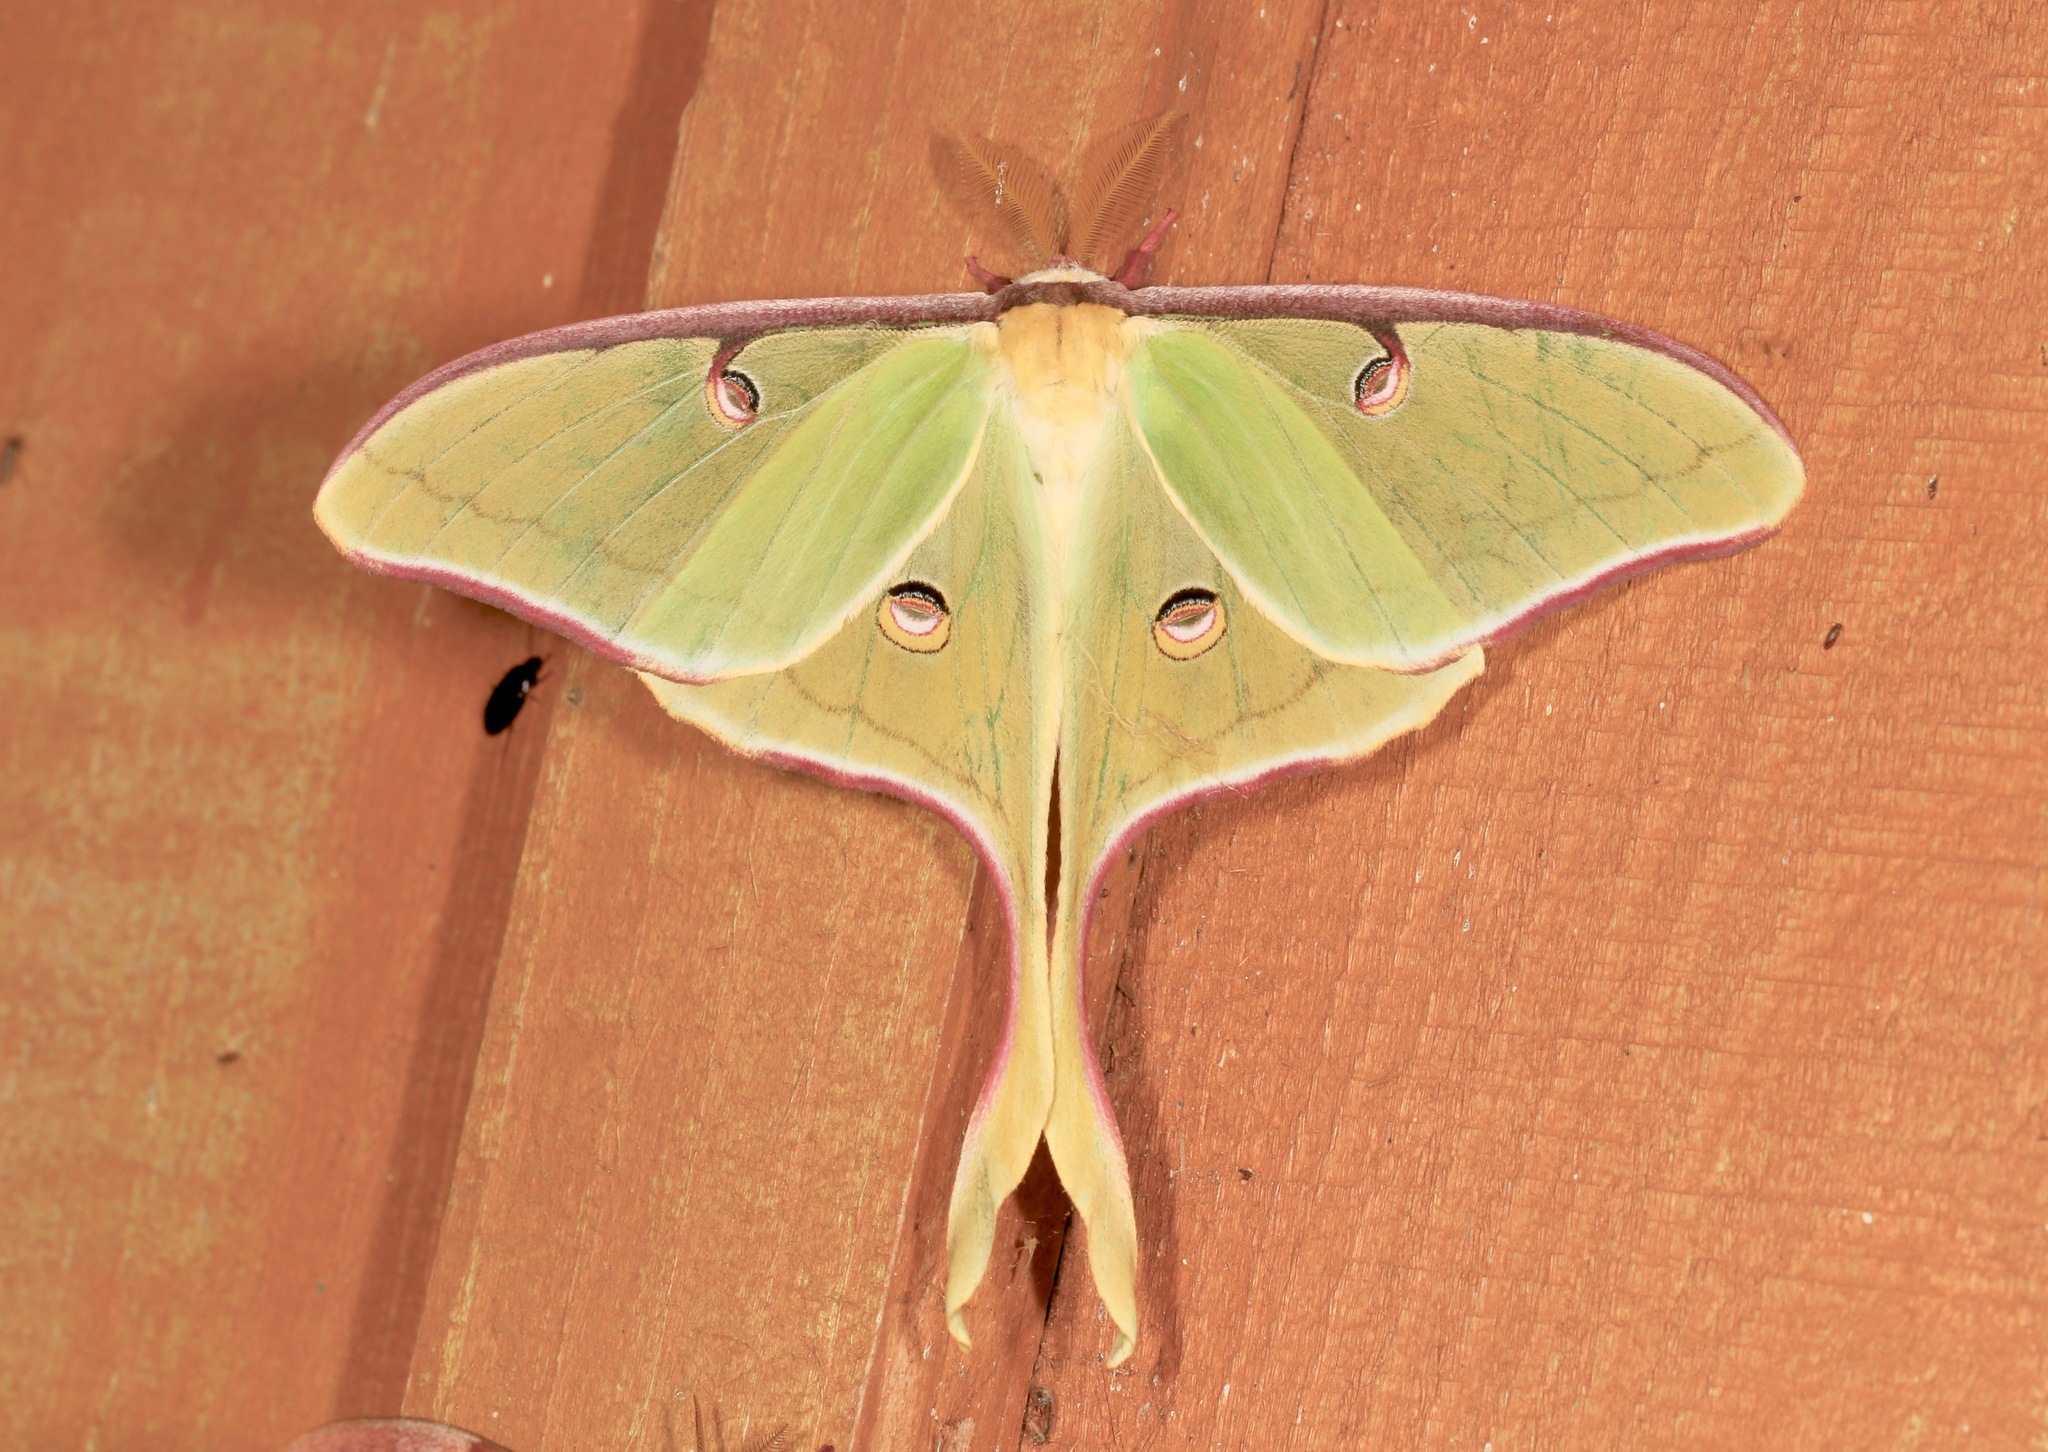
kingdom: Animalia
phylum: Arthropoda
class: Insecta
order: Lepidoptera
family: Saturniidae
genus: Actias
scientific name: Actias luna
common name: Luna moth
